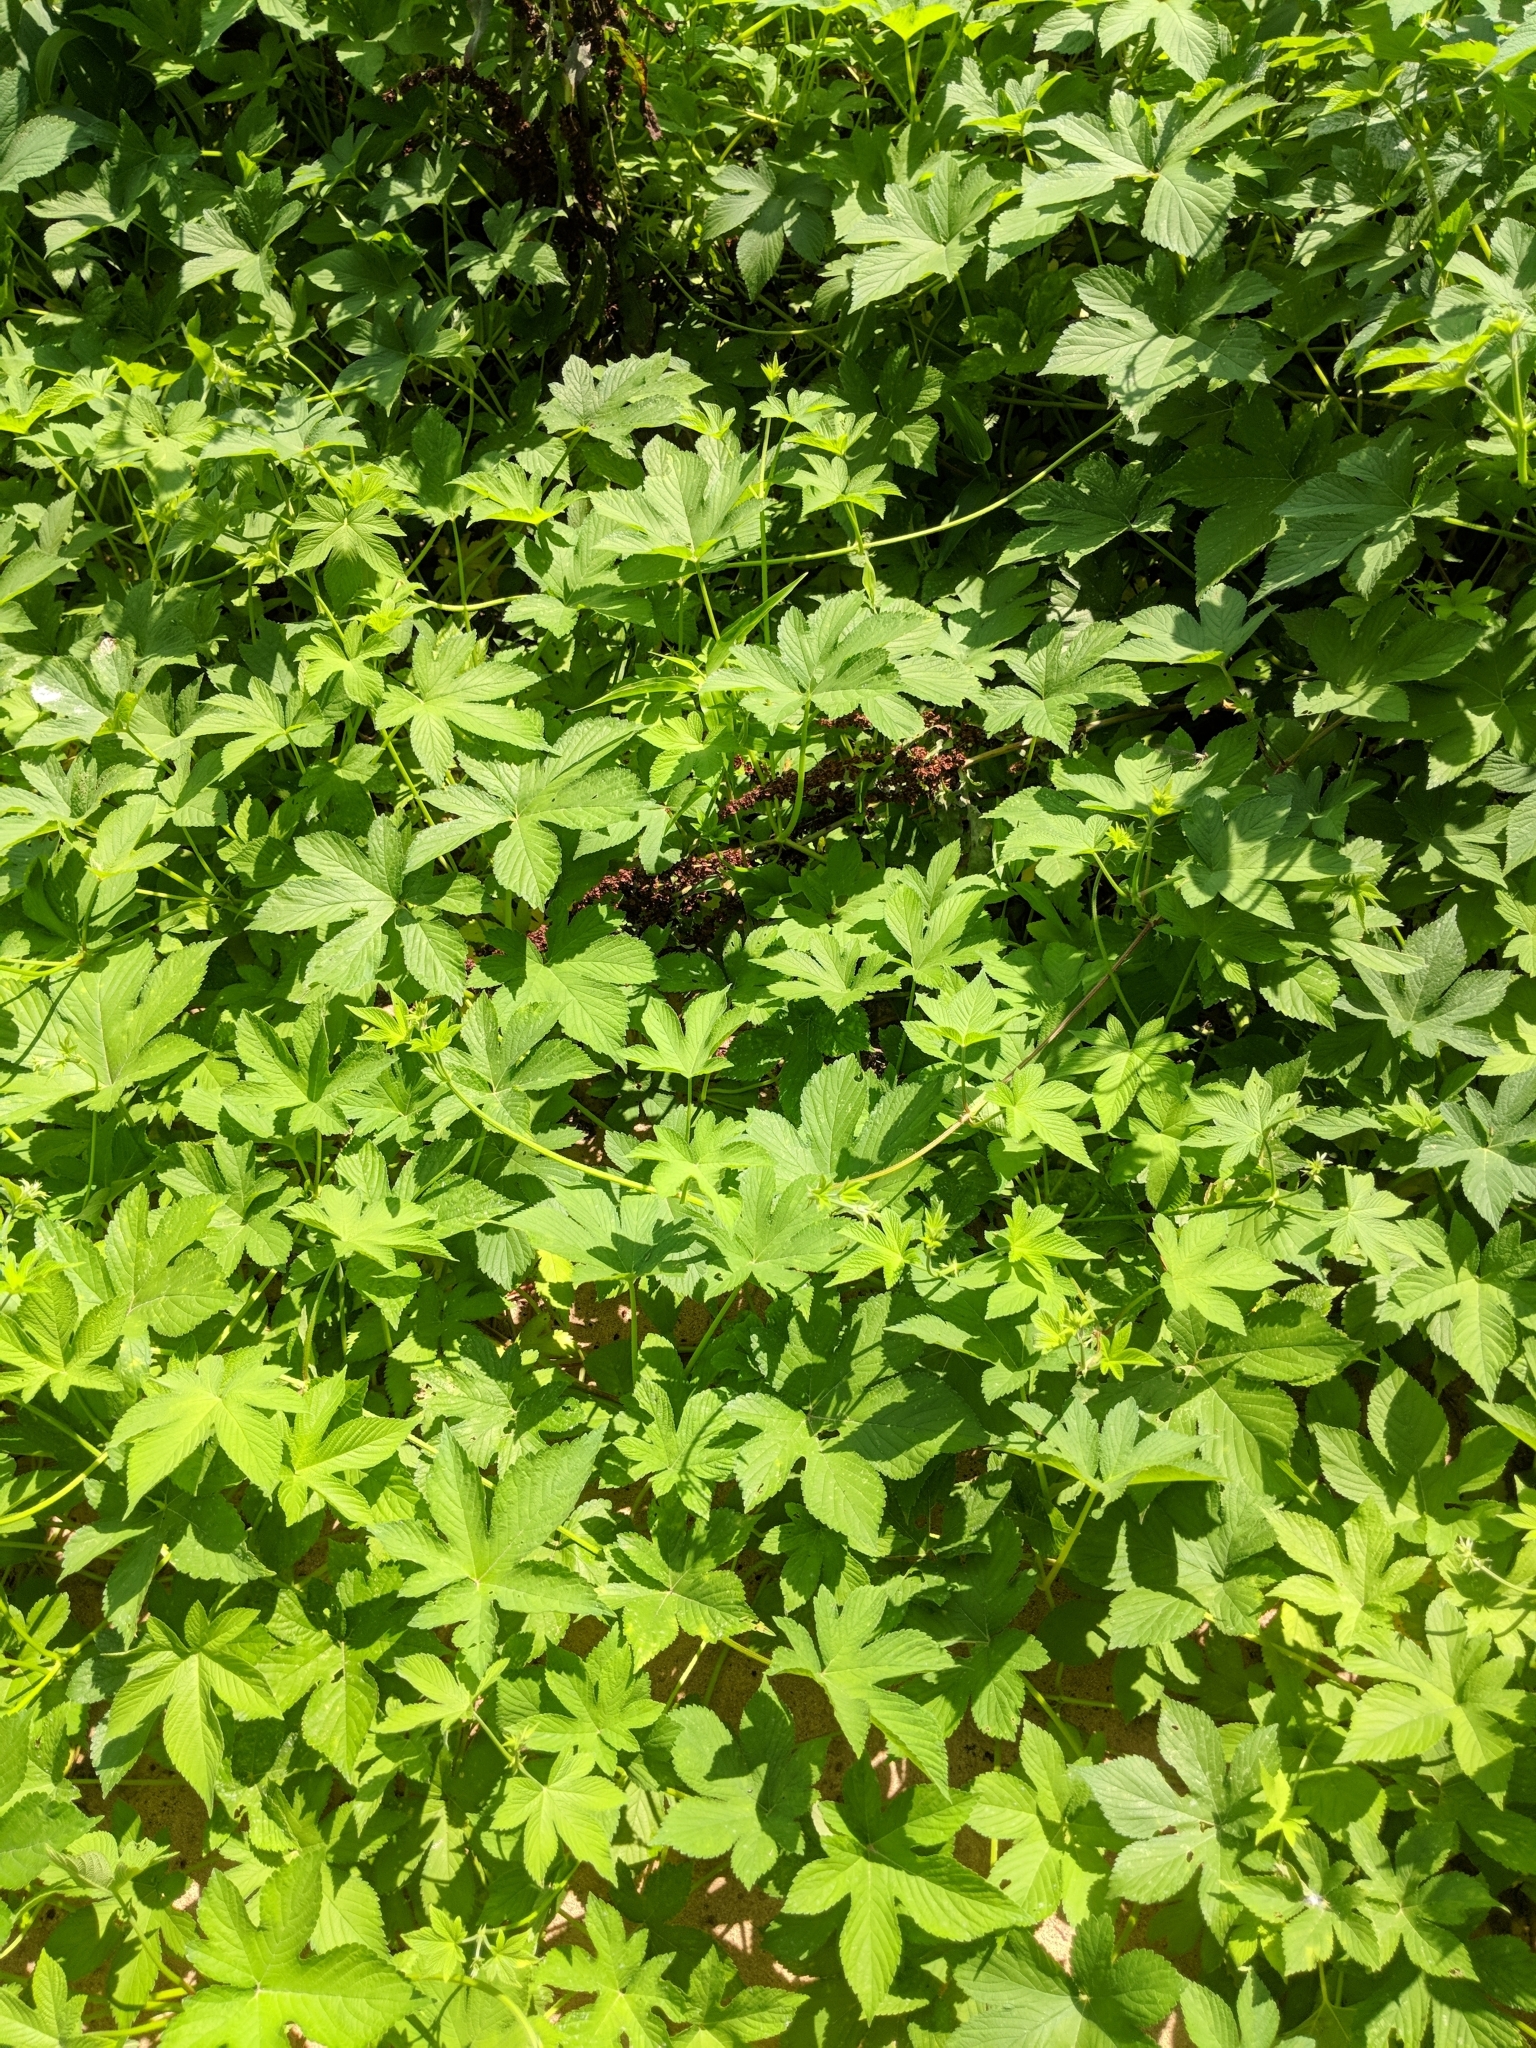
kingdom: Plantae
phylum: Tracheophyta
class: Magnoliopsida
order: Rosales
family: Cannabaceae
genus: Humulus
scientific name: Humulus scandens
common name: Japanese hop
